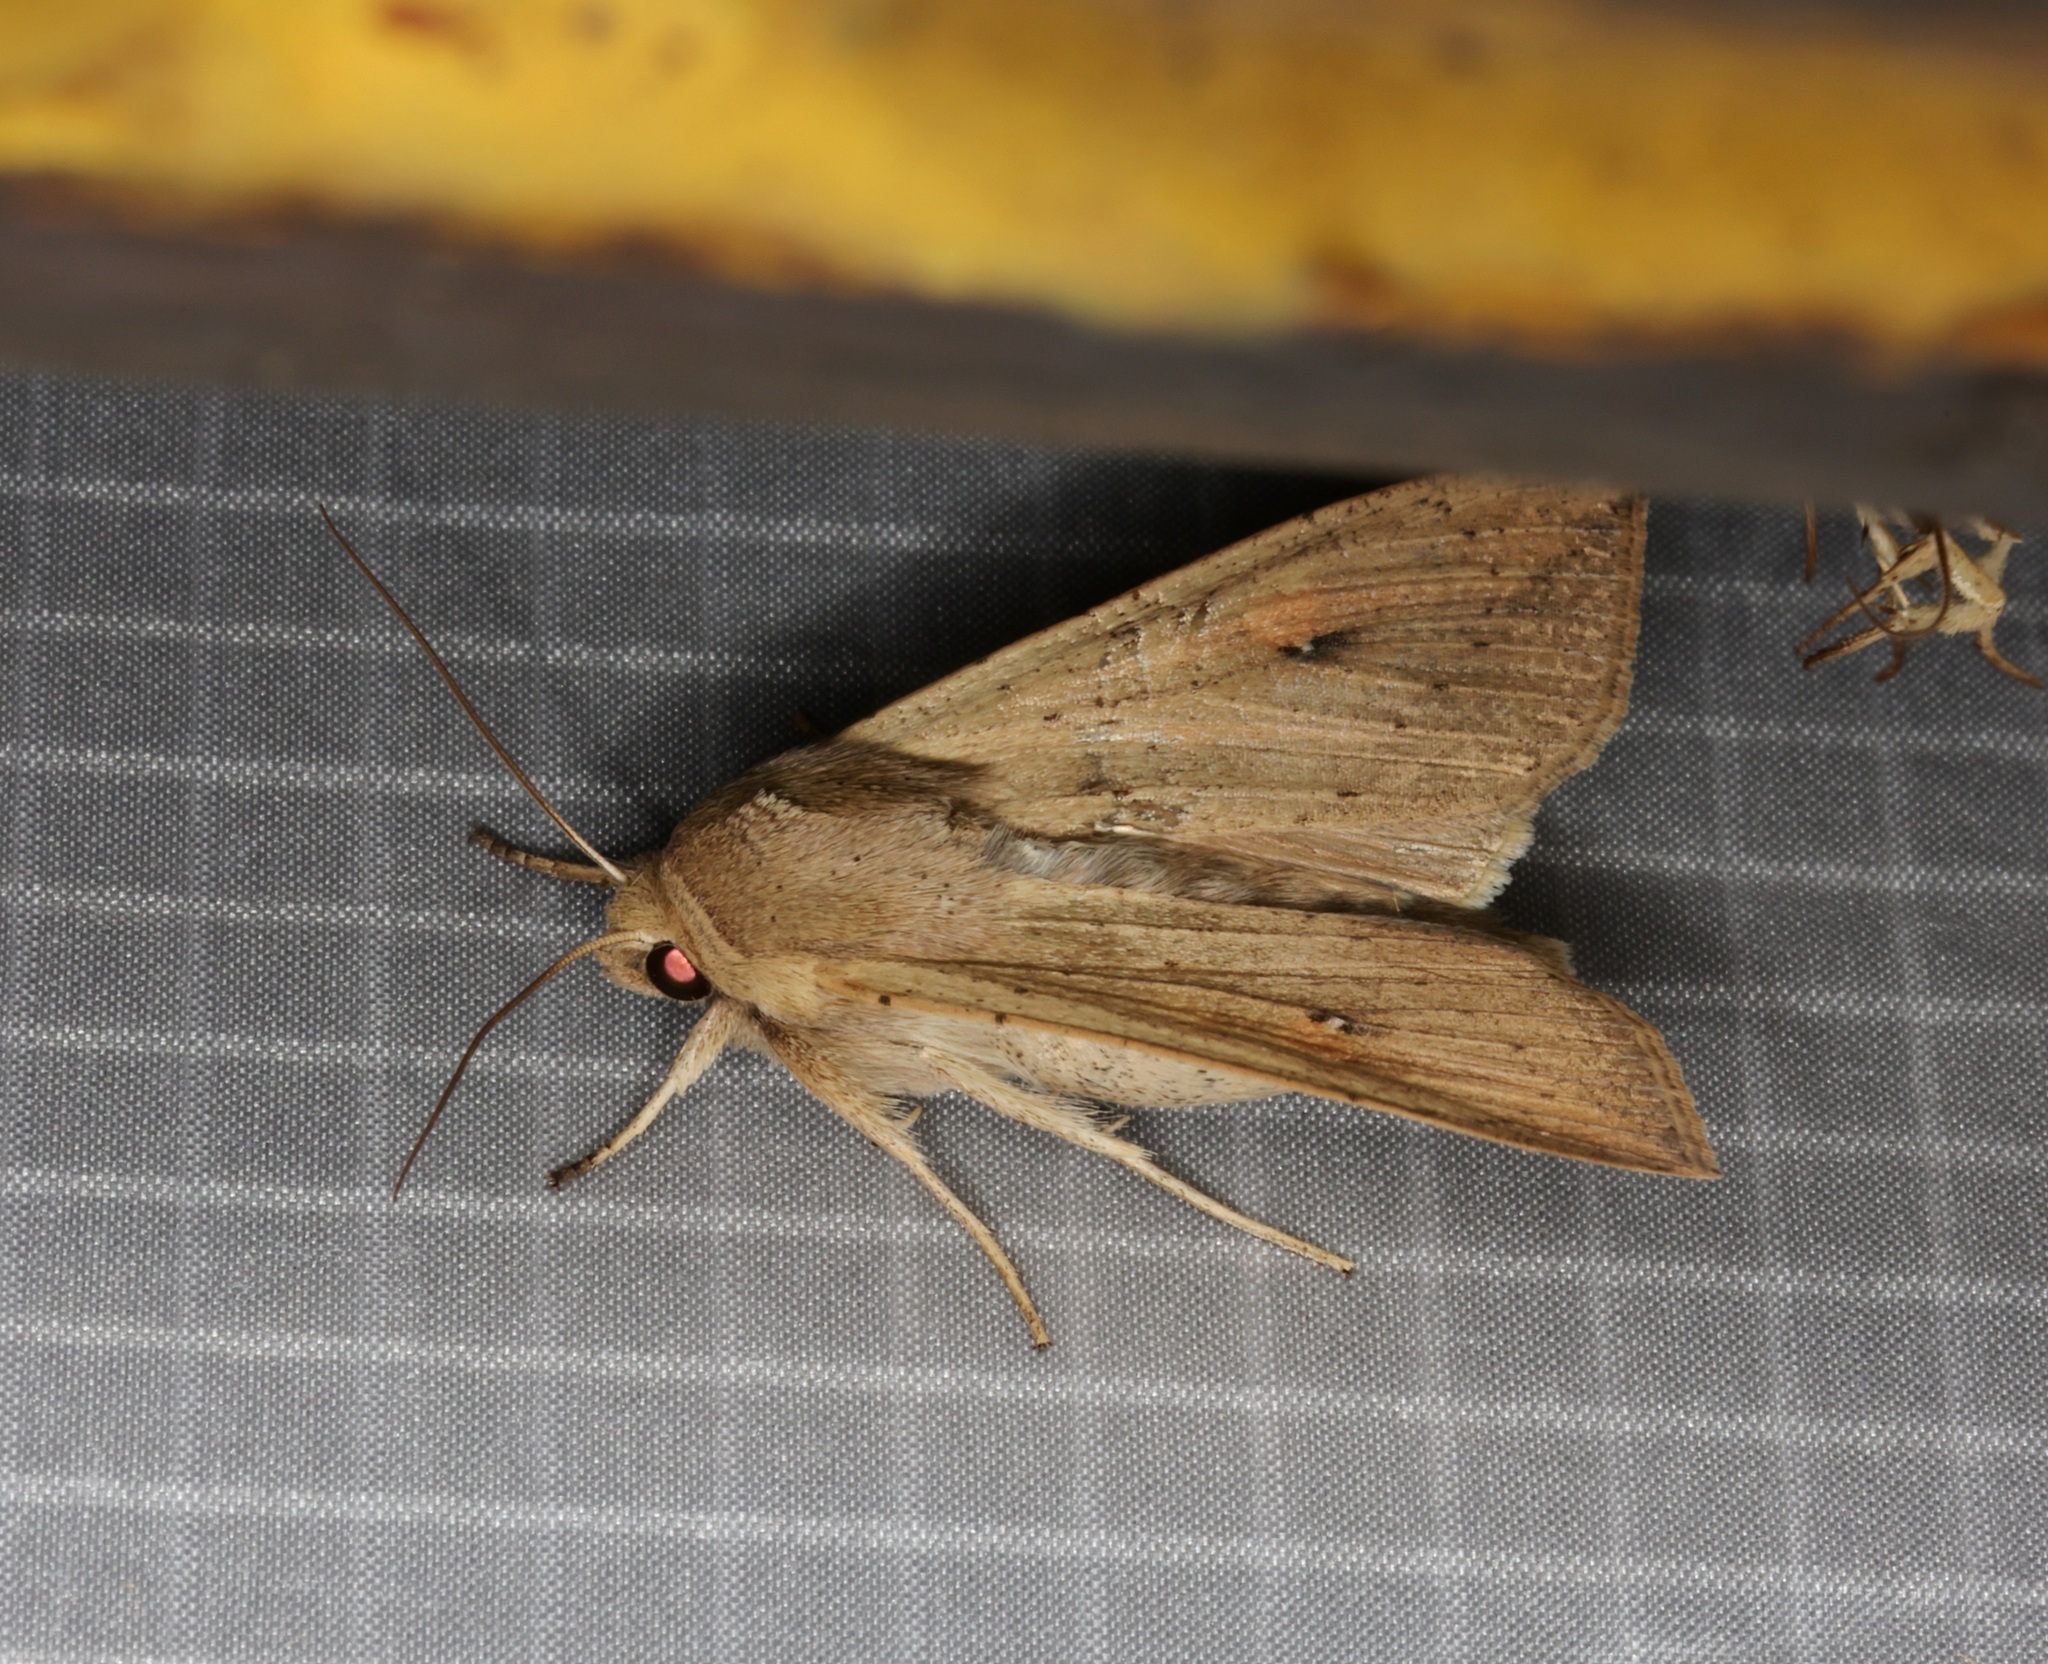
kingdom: Animalia
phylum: Arthropoda
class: Insecta
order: Lepidoptera
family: Noctuidae
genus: Mythimna
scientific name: Mythimna separata
